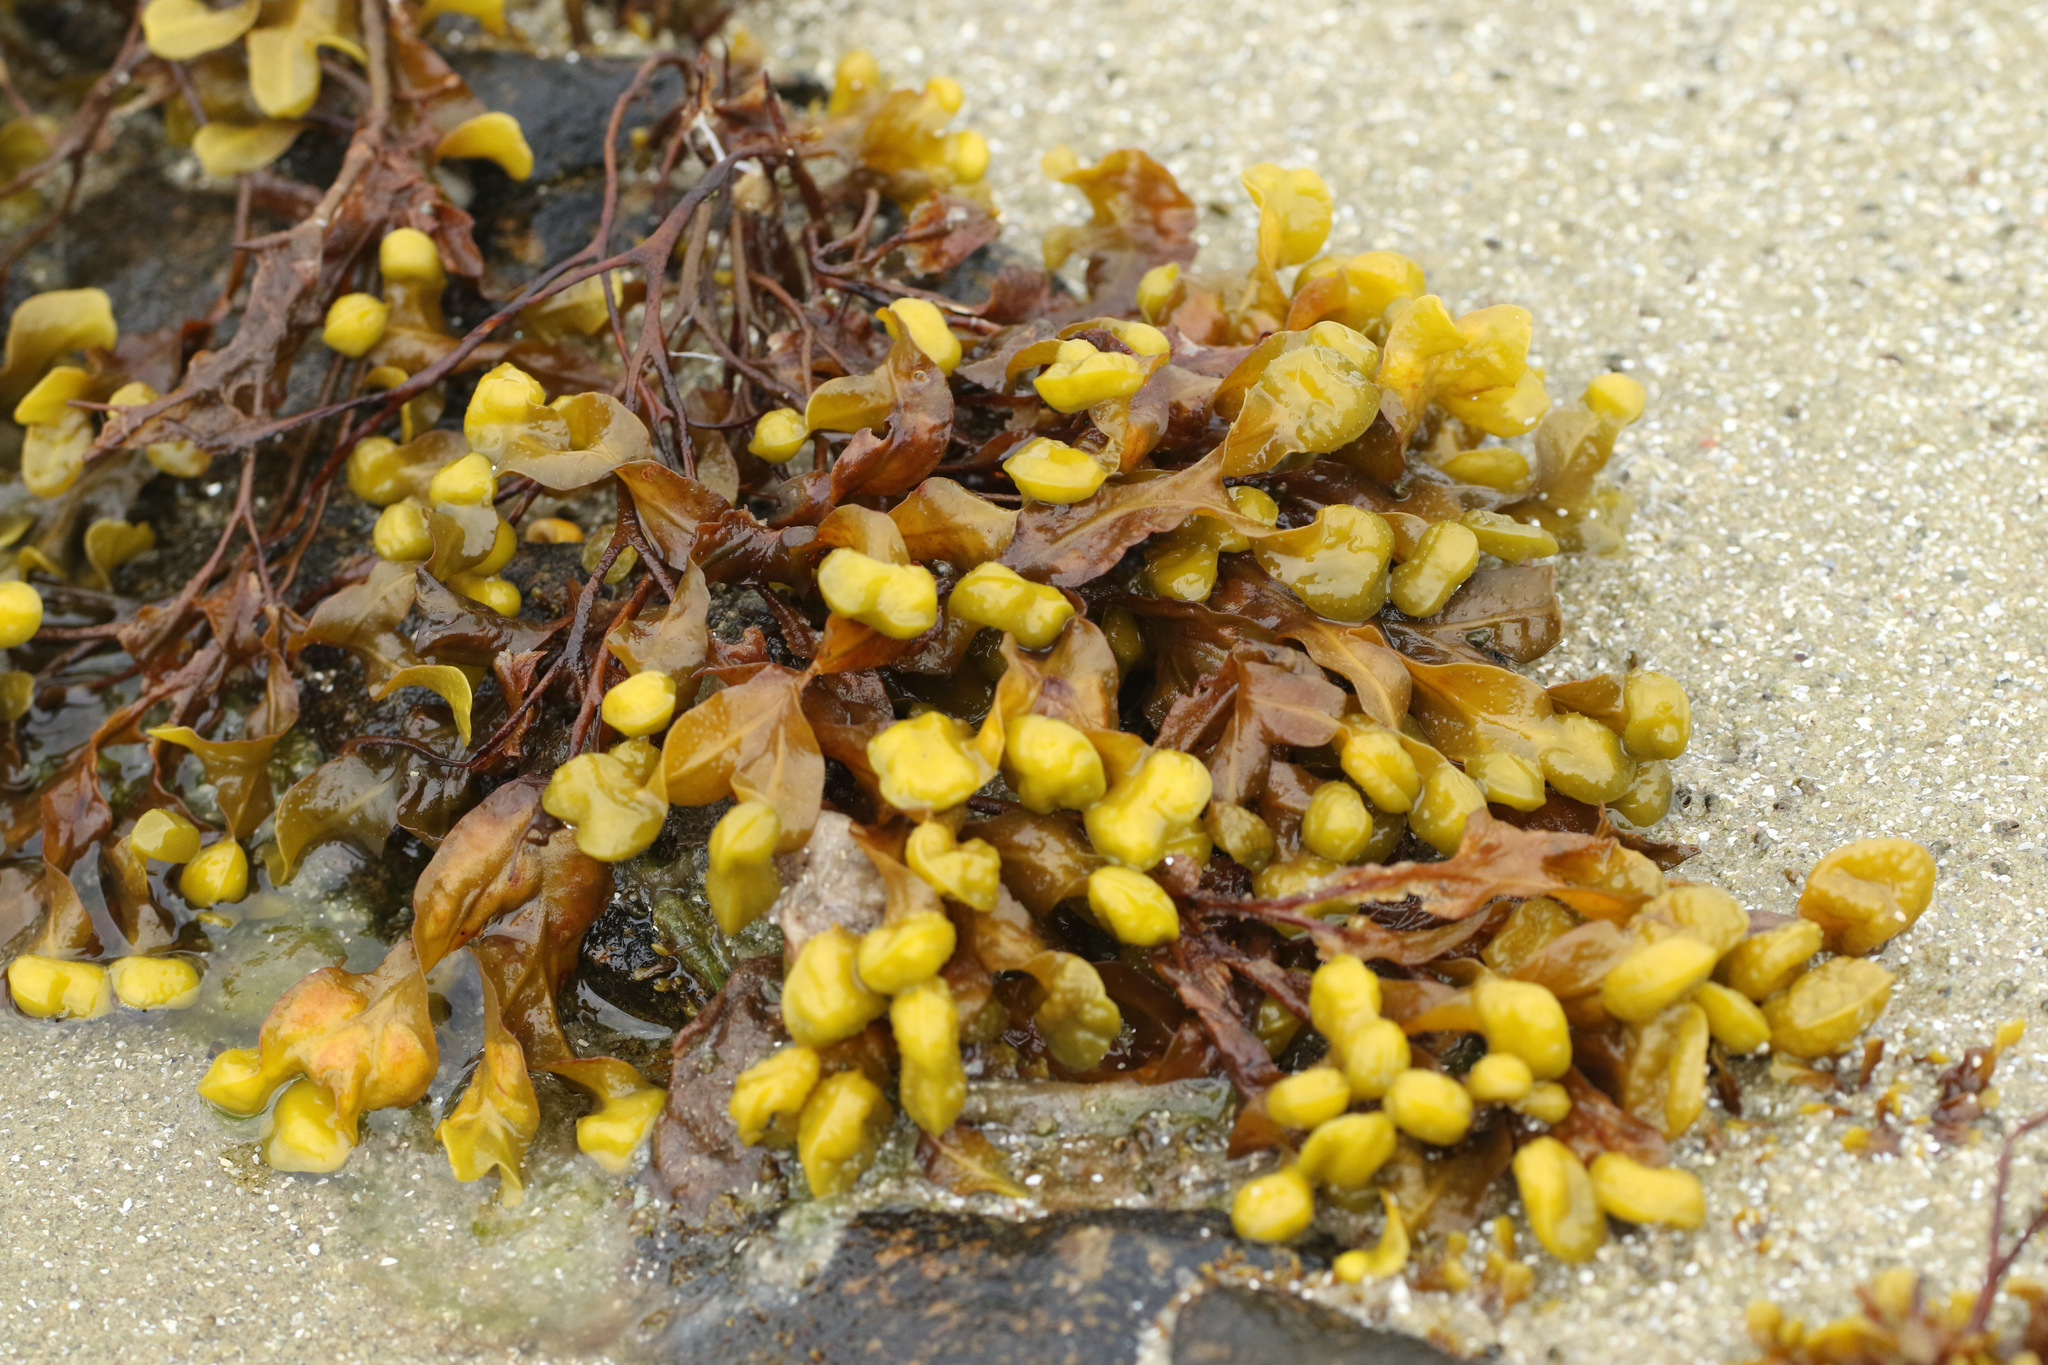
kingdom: Chromista
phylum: Ochrophyta
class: Phaeophyceae
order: Fucales
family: Fucaceae
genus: Fucus
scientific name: Fucus spiralis
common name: Spiral wrack
